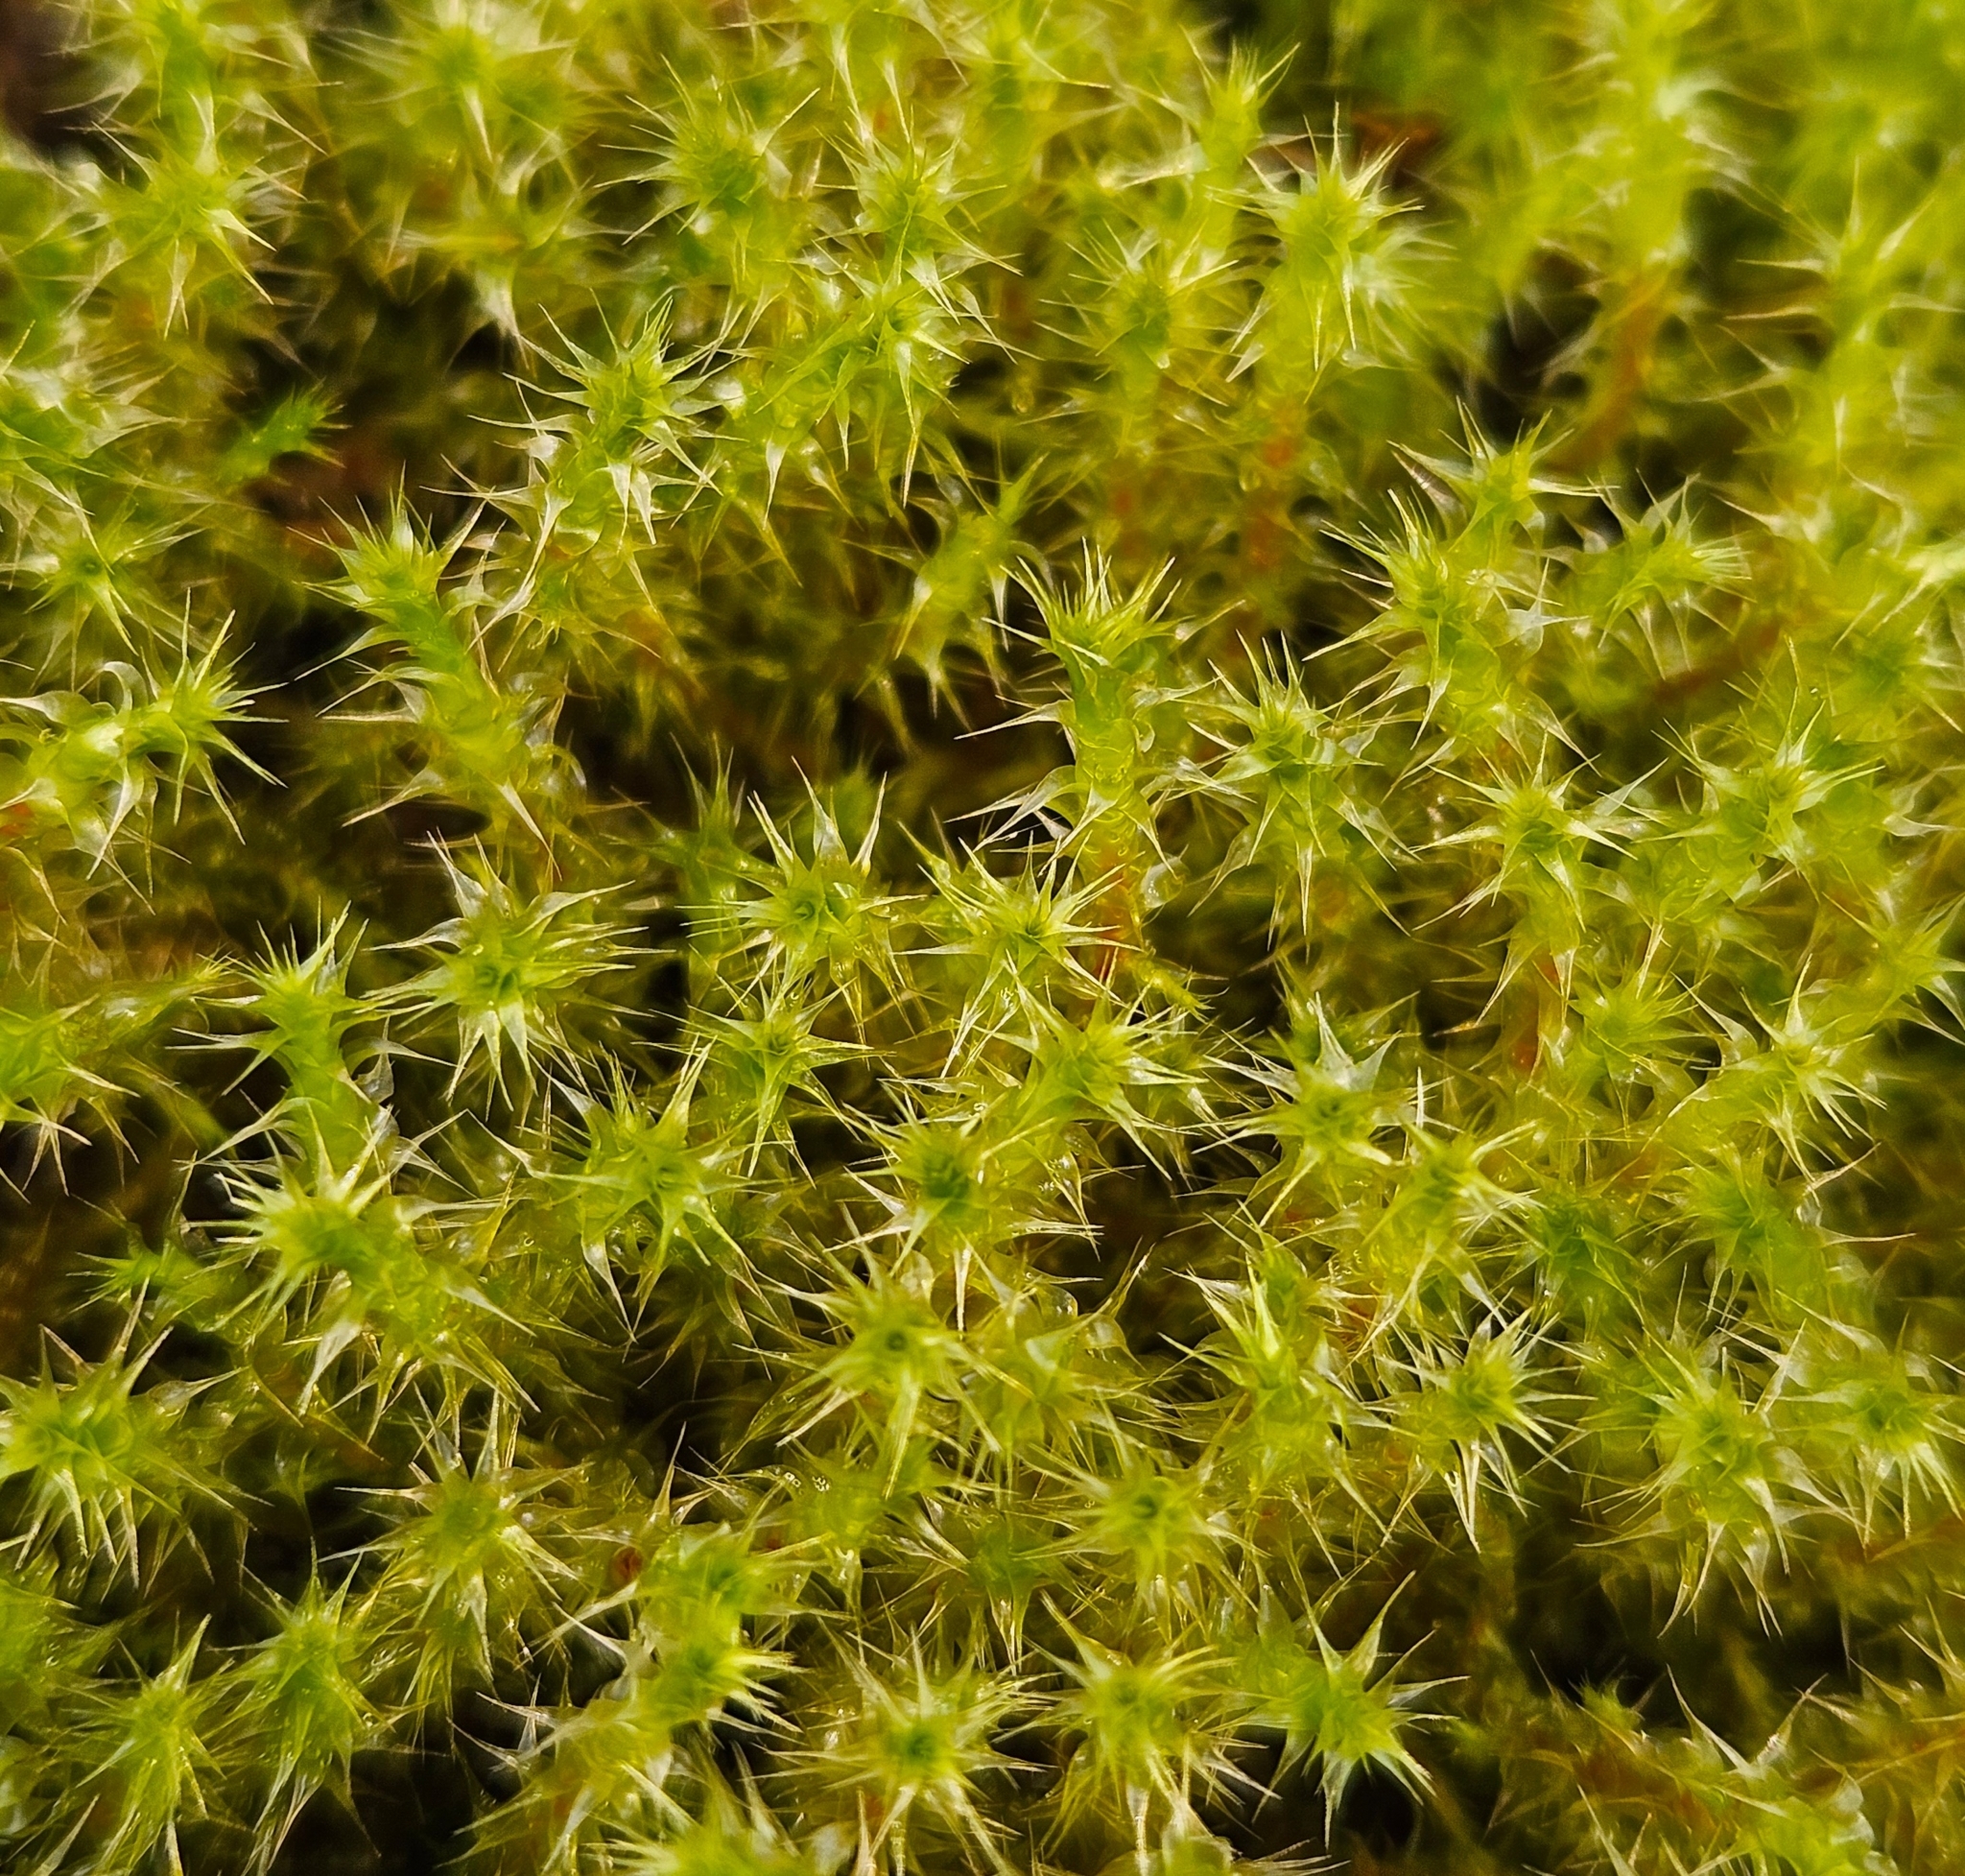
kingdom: Plantae
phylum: Bryophyta
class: Bryopsida
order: Hypnales
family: Hylocomiaceae
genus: Rhytidiadelphus
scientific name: Rhytidiadelphus squarrosus
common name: Springy turf-moss
